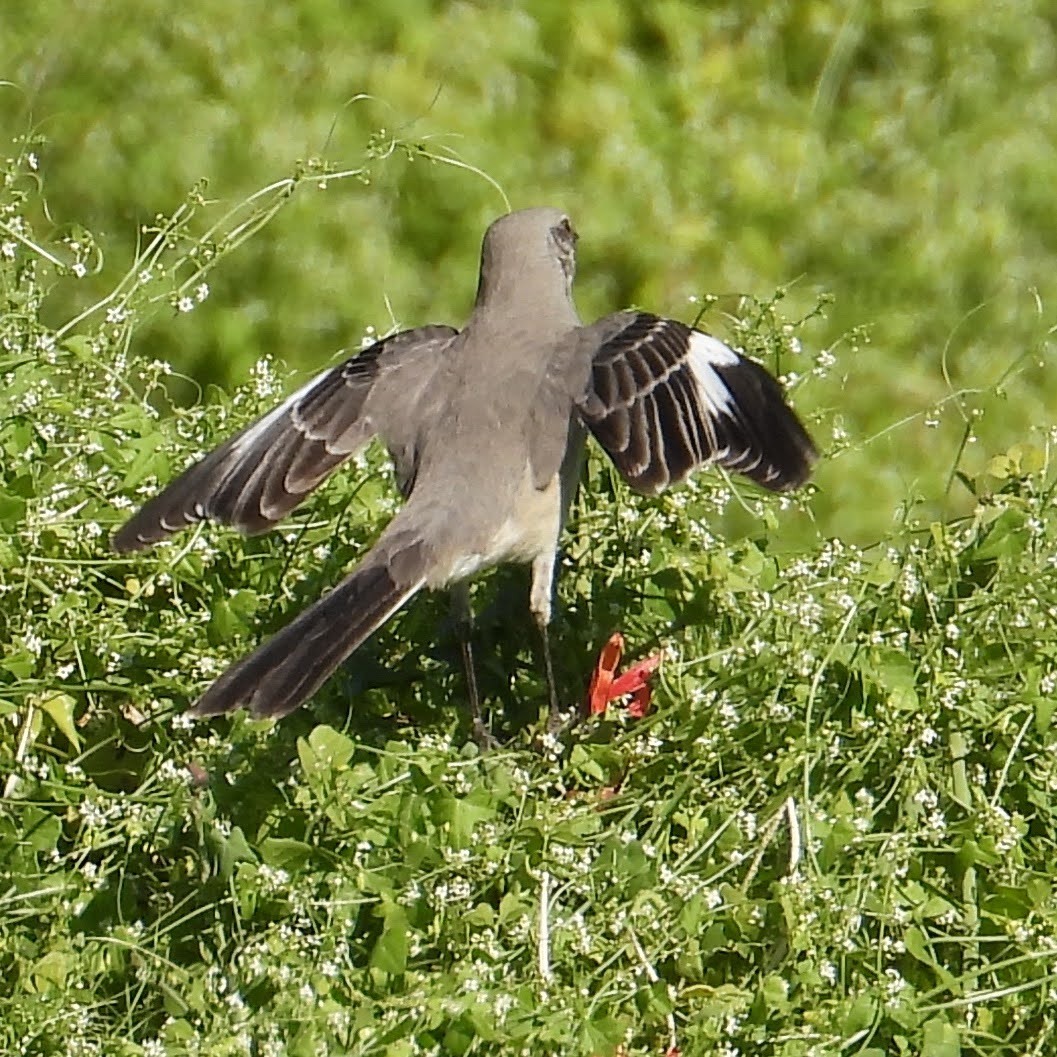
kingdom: Animalia
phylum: Chordata
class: Aves
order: Passeriformes
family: Mimidae
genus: Mimus
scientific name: Mimus polyglottos
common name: Northern mockingbird
